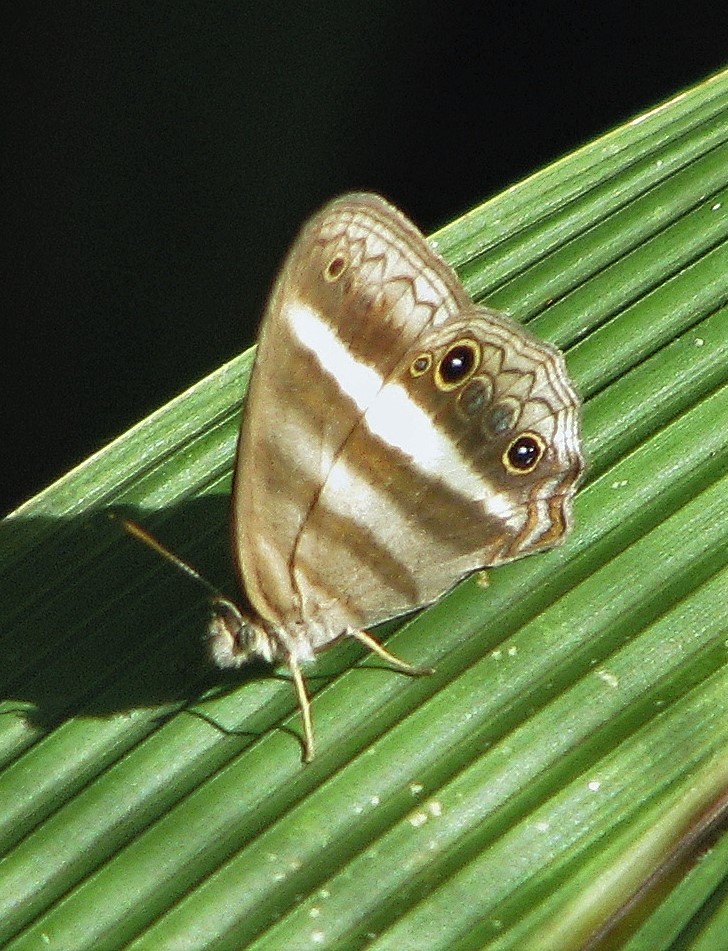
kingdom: Animalia
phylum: Arthropoda
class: Insecta
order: Lepidoptera
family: Nymphalidae
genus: Pareuptychia
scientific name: Pareuptychia summandosa
